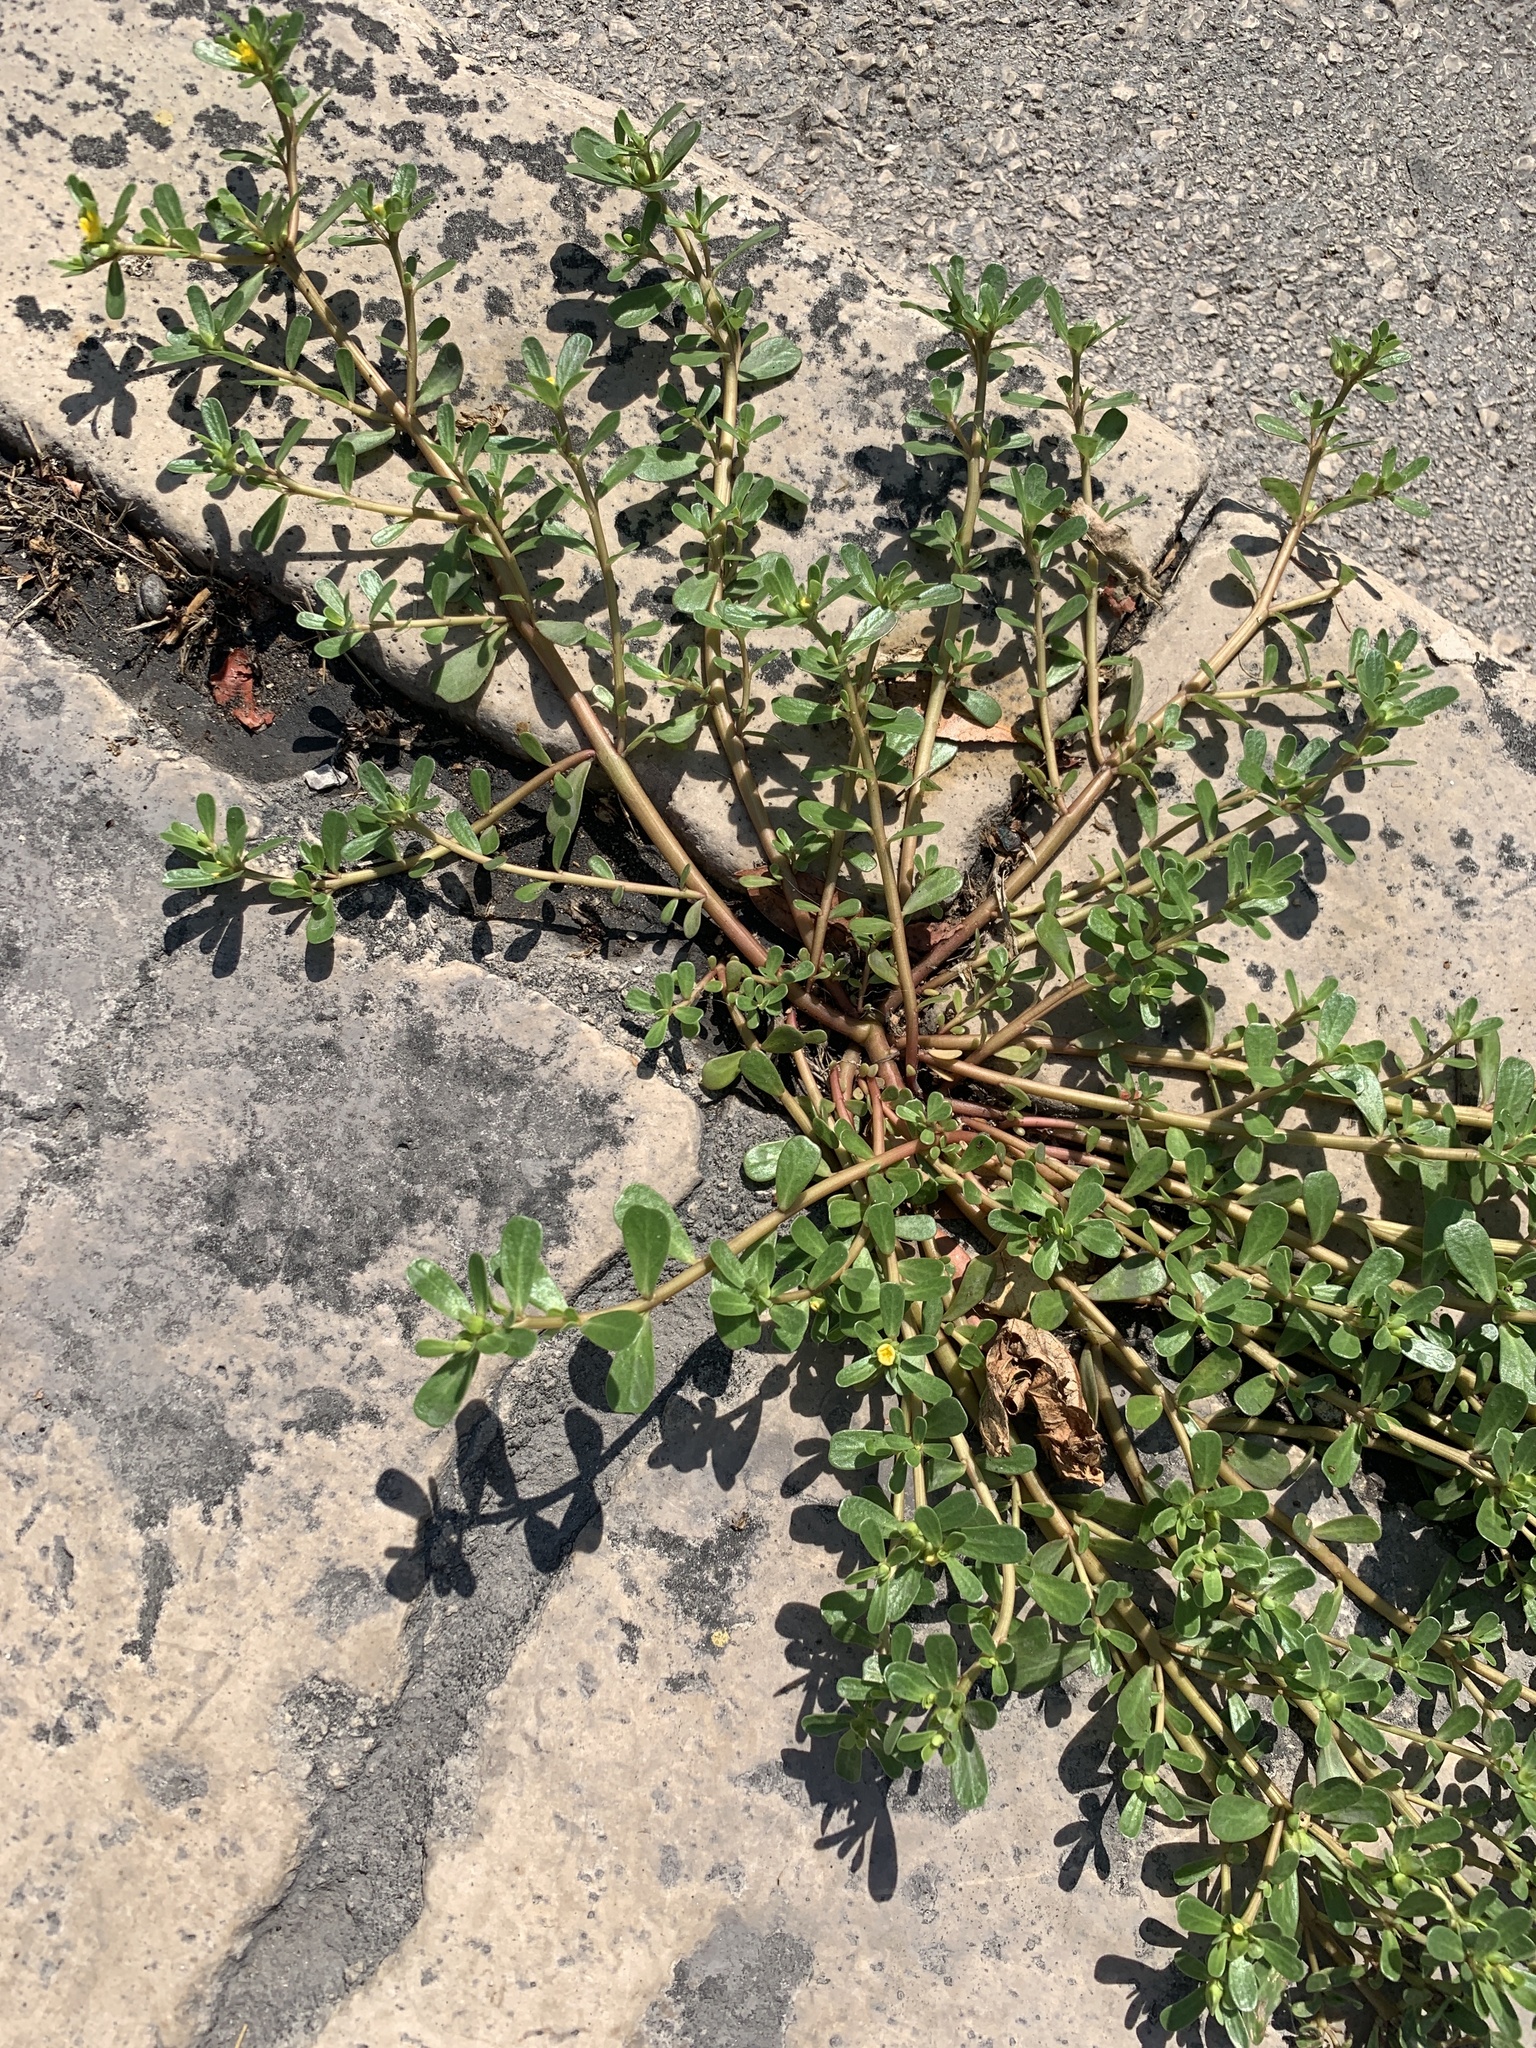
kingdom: Plantae
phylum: Tracheophyta
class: Magnoliopsida
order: Caryophyllales
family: Portulacaceae
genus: Portulaca
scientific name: Portulaca oleracea
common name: Common purslane
